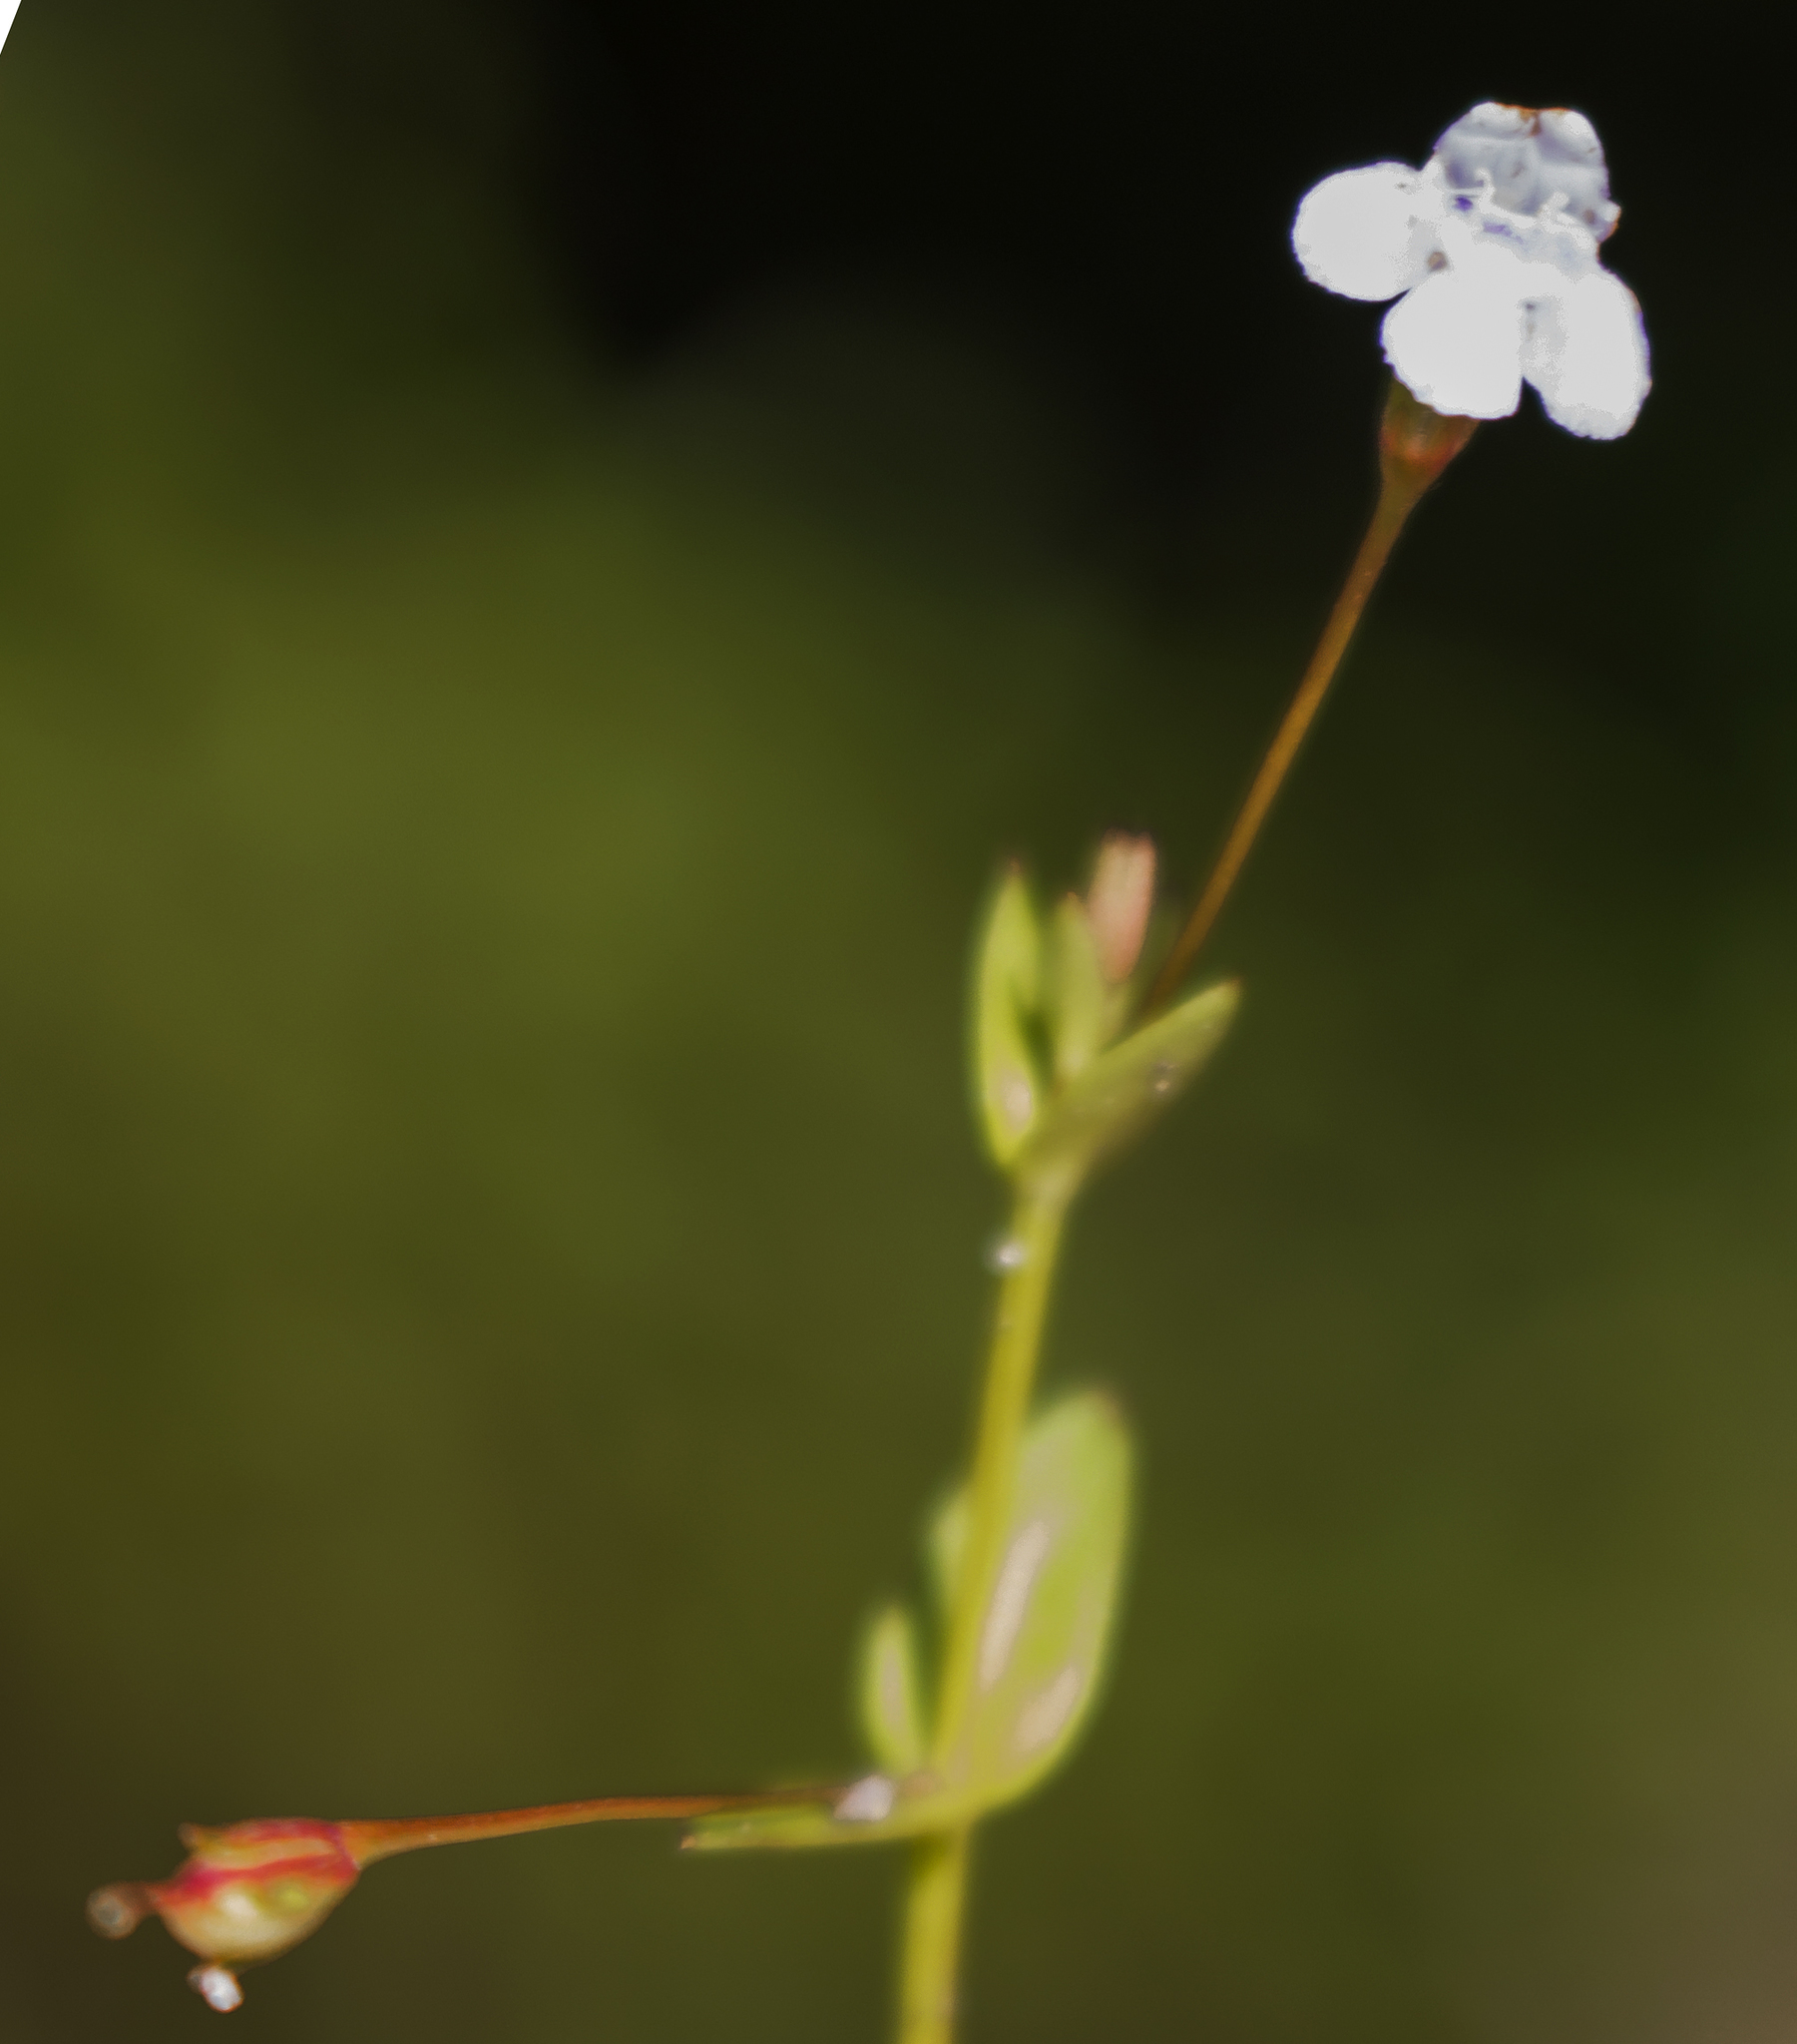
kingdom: Plantae
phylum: Tracheophyta
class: Magnoliopsida
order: Lamiales
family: Linderniaceae
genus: Lindernia
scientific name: Lindernia dubia
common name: Annual false pimpernel
